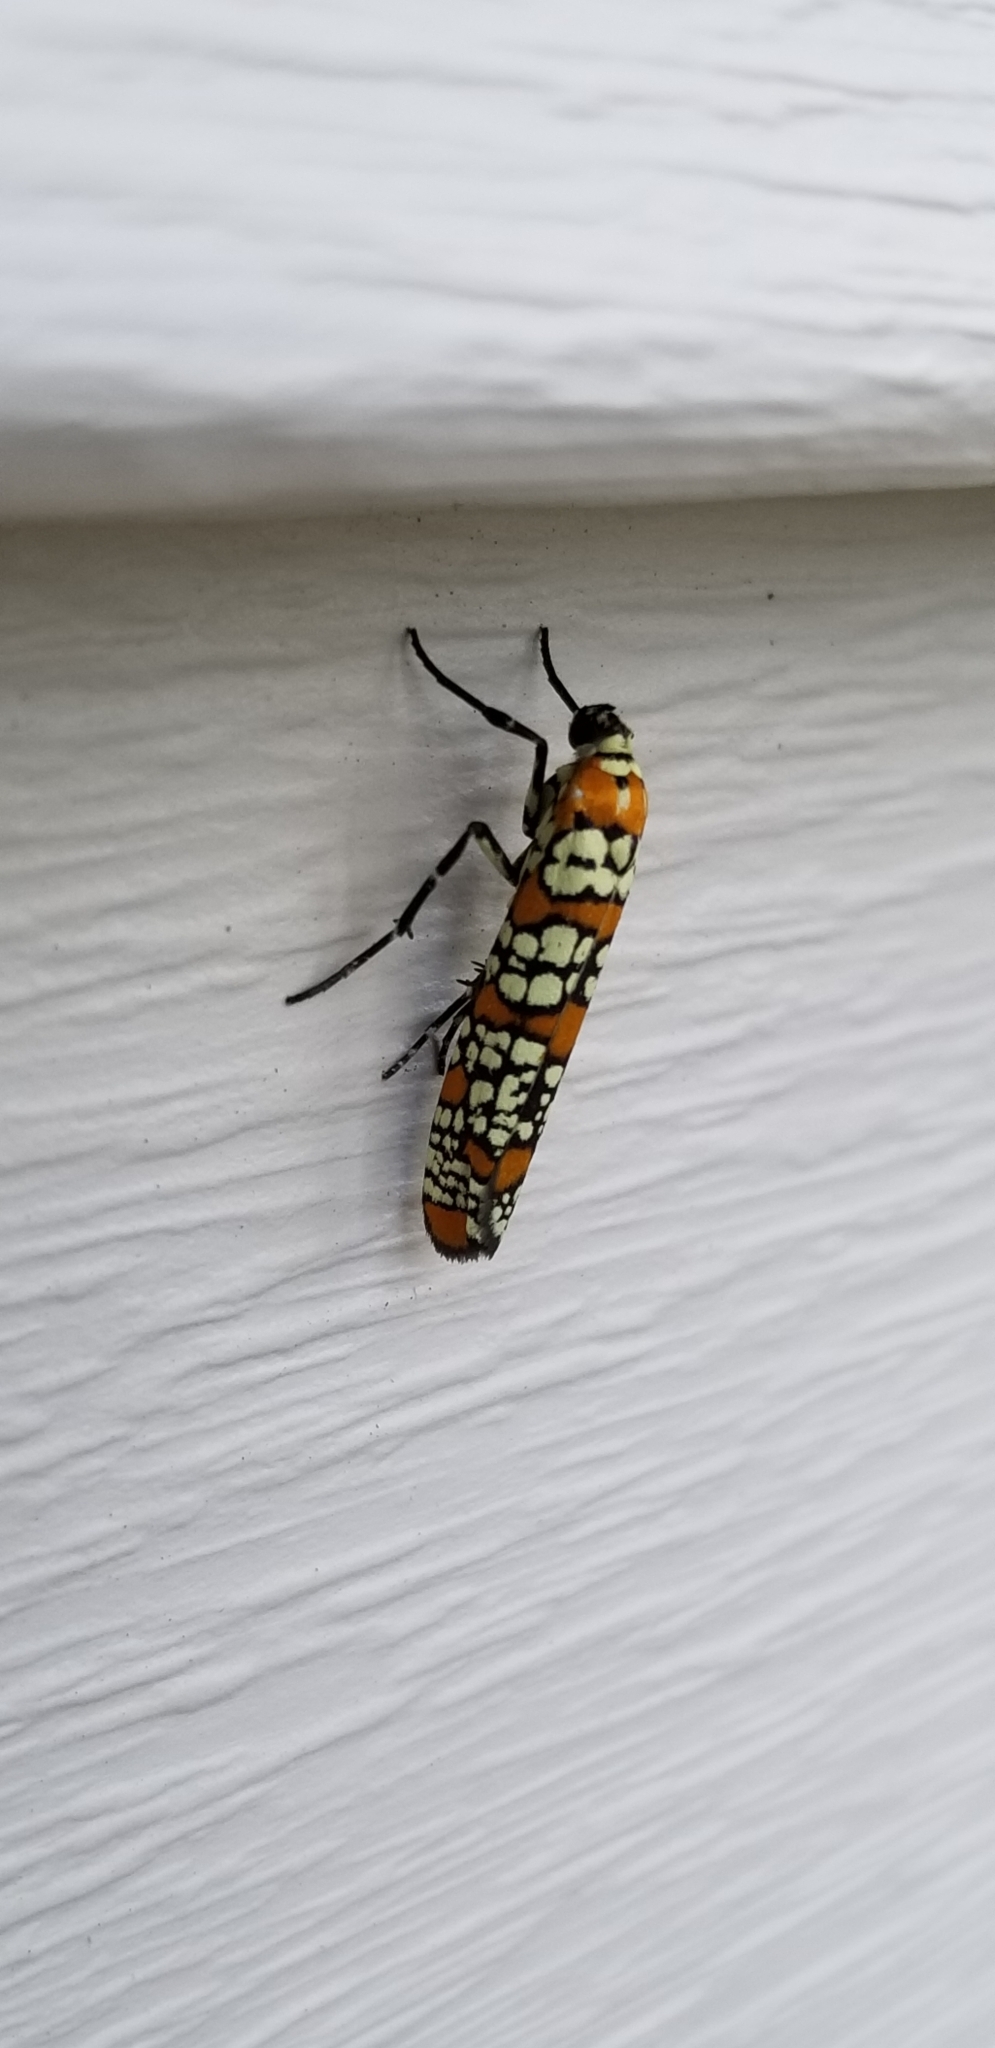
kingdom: Animalia
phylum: Arthropoda
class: Insecta
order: Lepidoptera
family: Attevidae
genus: Atteva
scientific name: Atteva punctella
